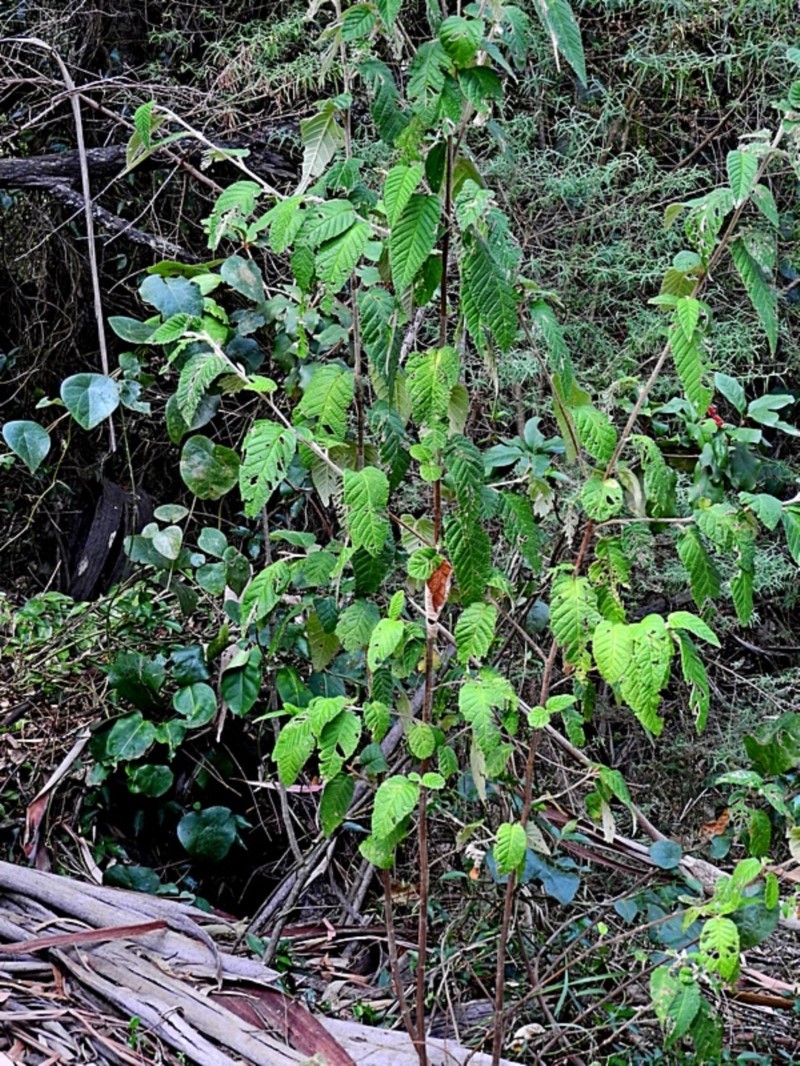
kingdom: Plantae
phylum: Tracheophyta
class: Magnoliopsida
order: Rosales
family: Rhamnaceae
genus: Pomaderris
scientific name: Pomaderris aspera
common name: Hazel pomaderris
